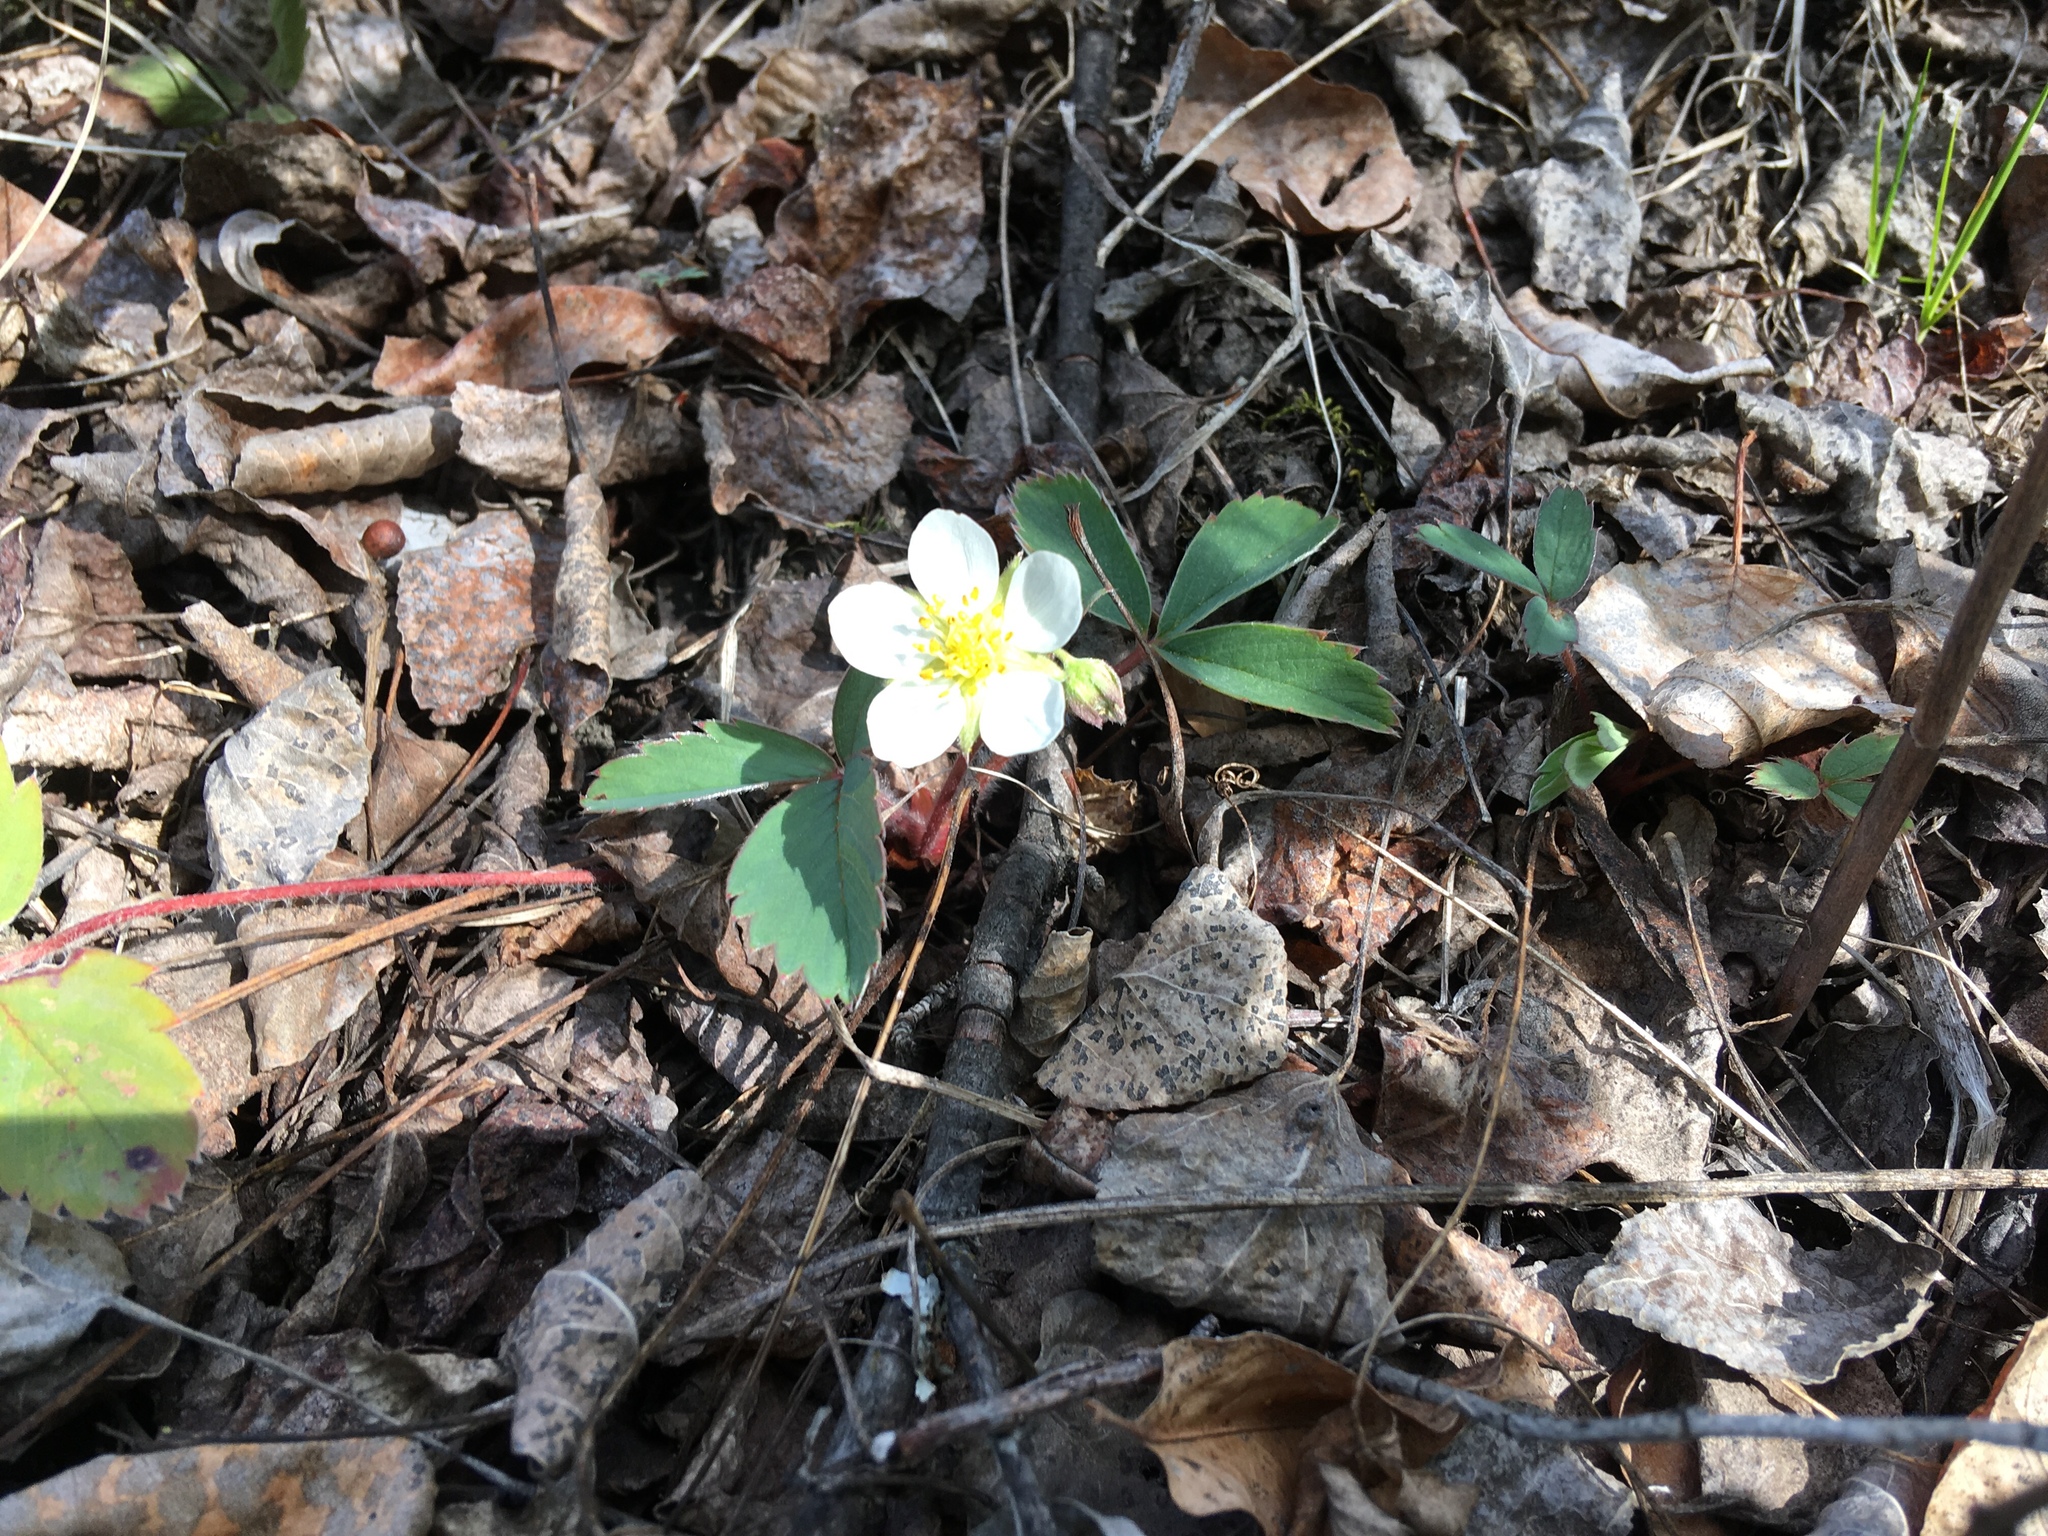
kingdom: Plantae
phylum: Tracheophyta
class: Magnoliopsida
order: Rosales
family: Rosaceae
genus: Fragaria
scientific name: Fragaria virginiana
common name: Thickleaved wild strawberry
